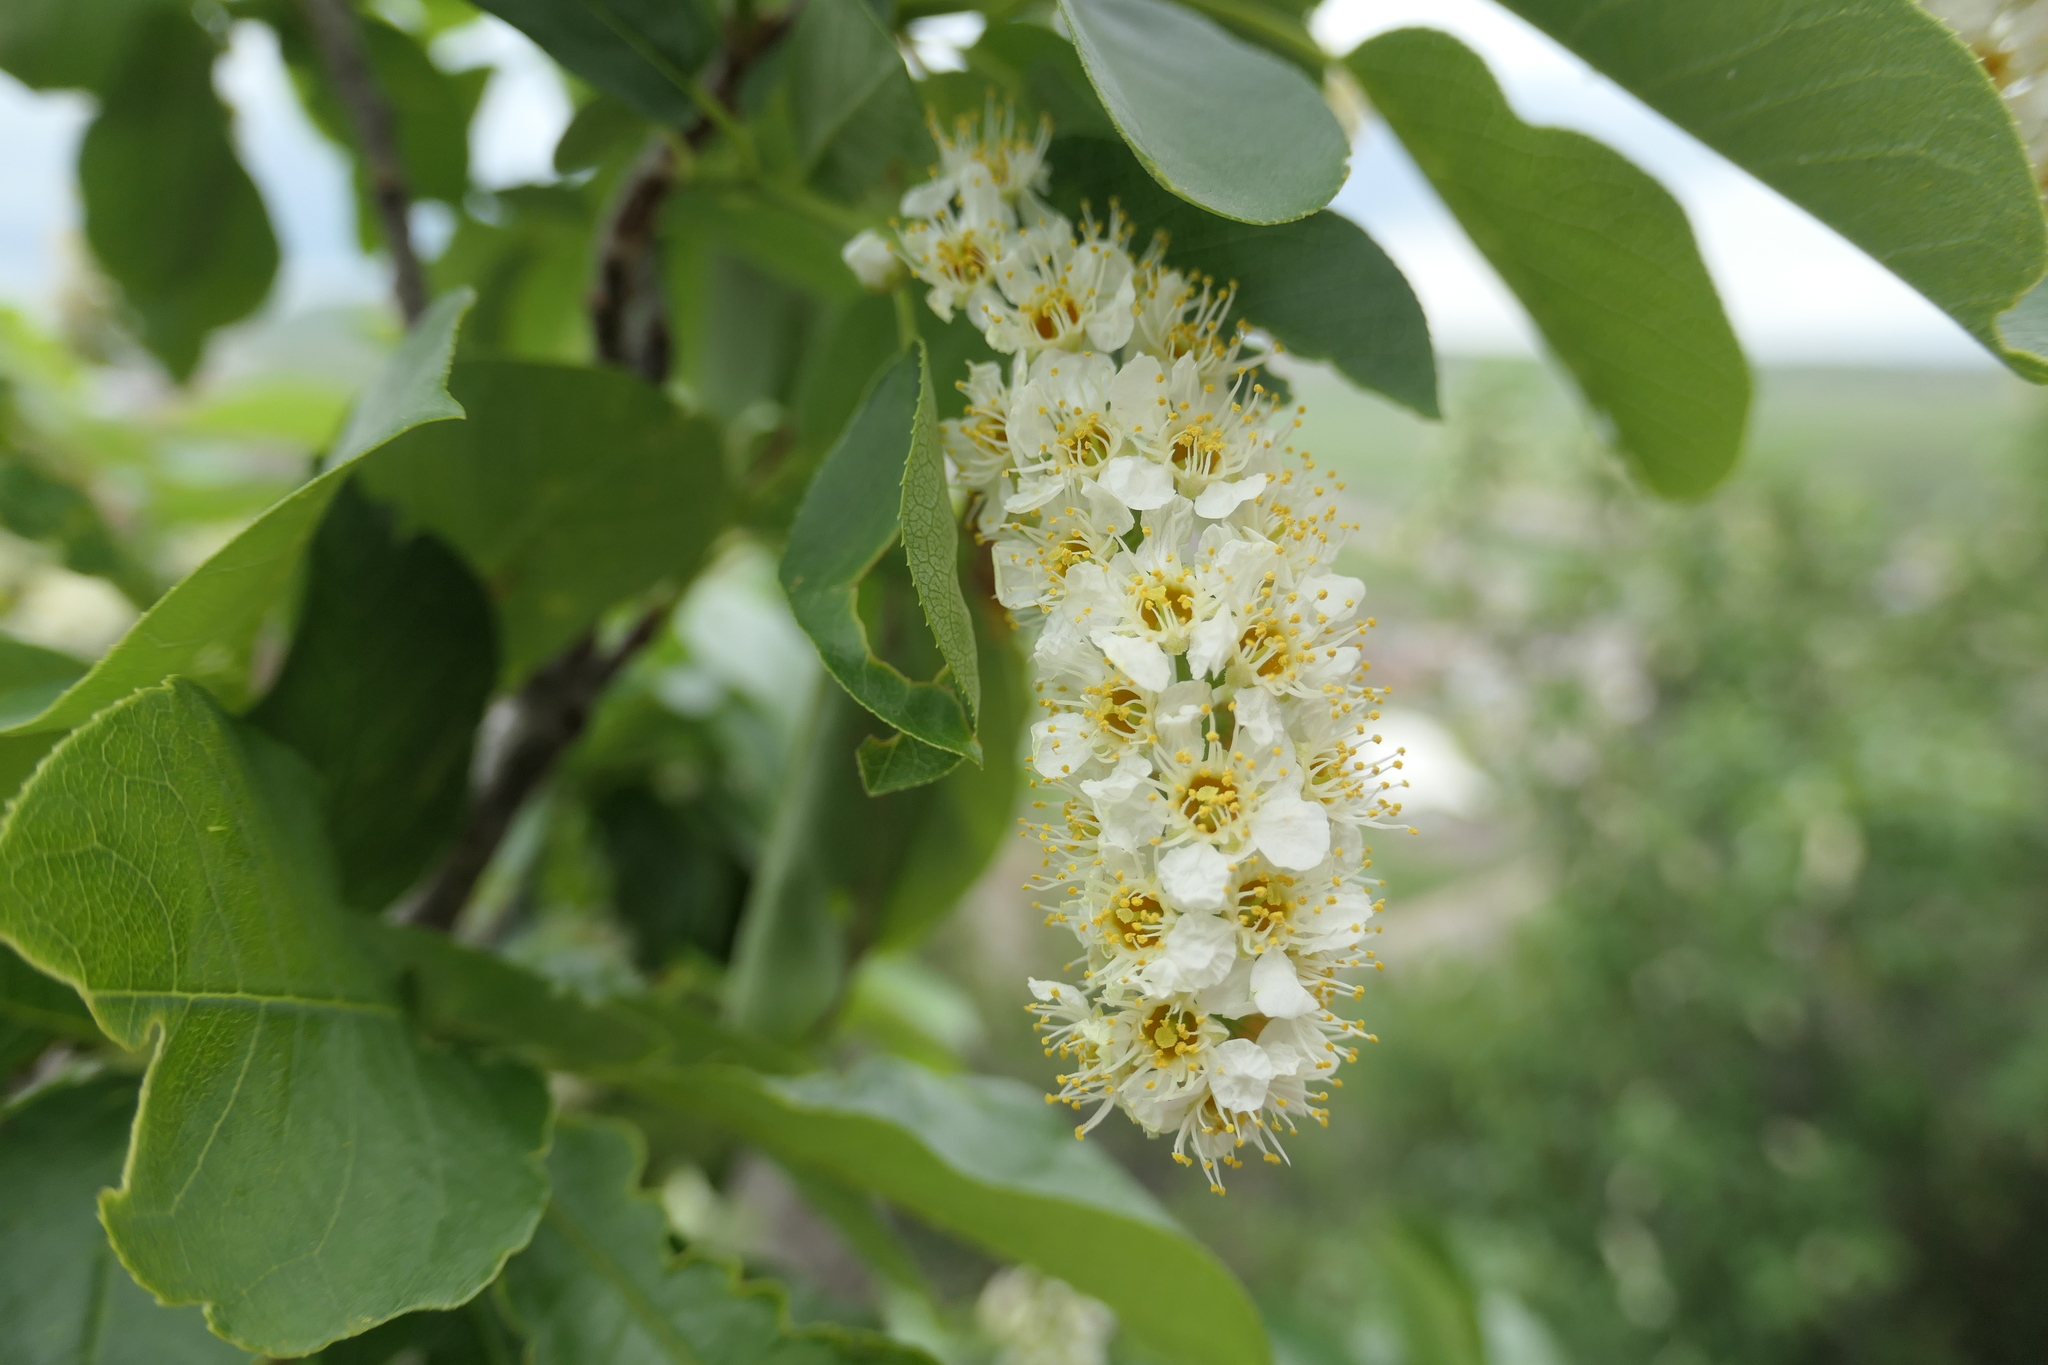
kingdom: Plantae
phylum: Tracheophyta
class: Magnoliopsida
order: Rosales
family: Rosaceae
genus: Prunus
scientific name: Prunus virginiana
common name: Chokecherry
